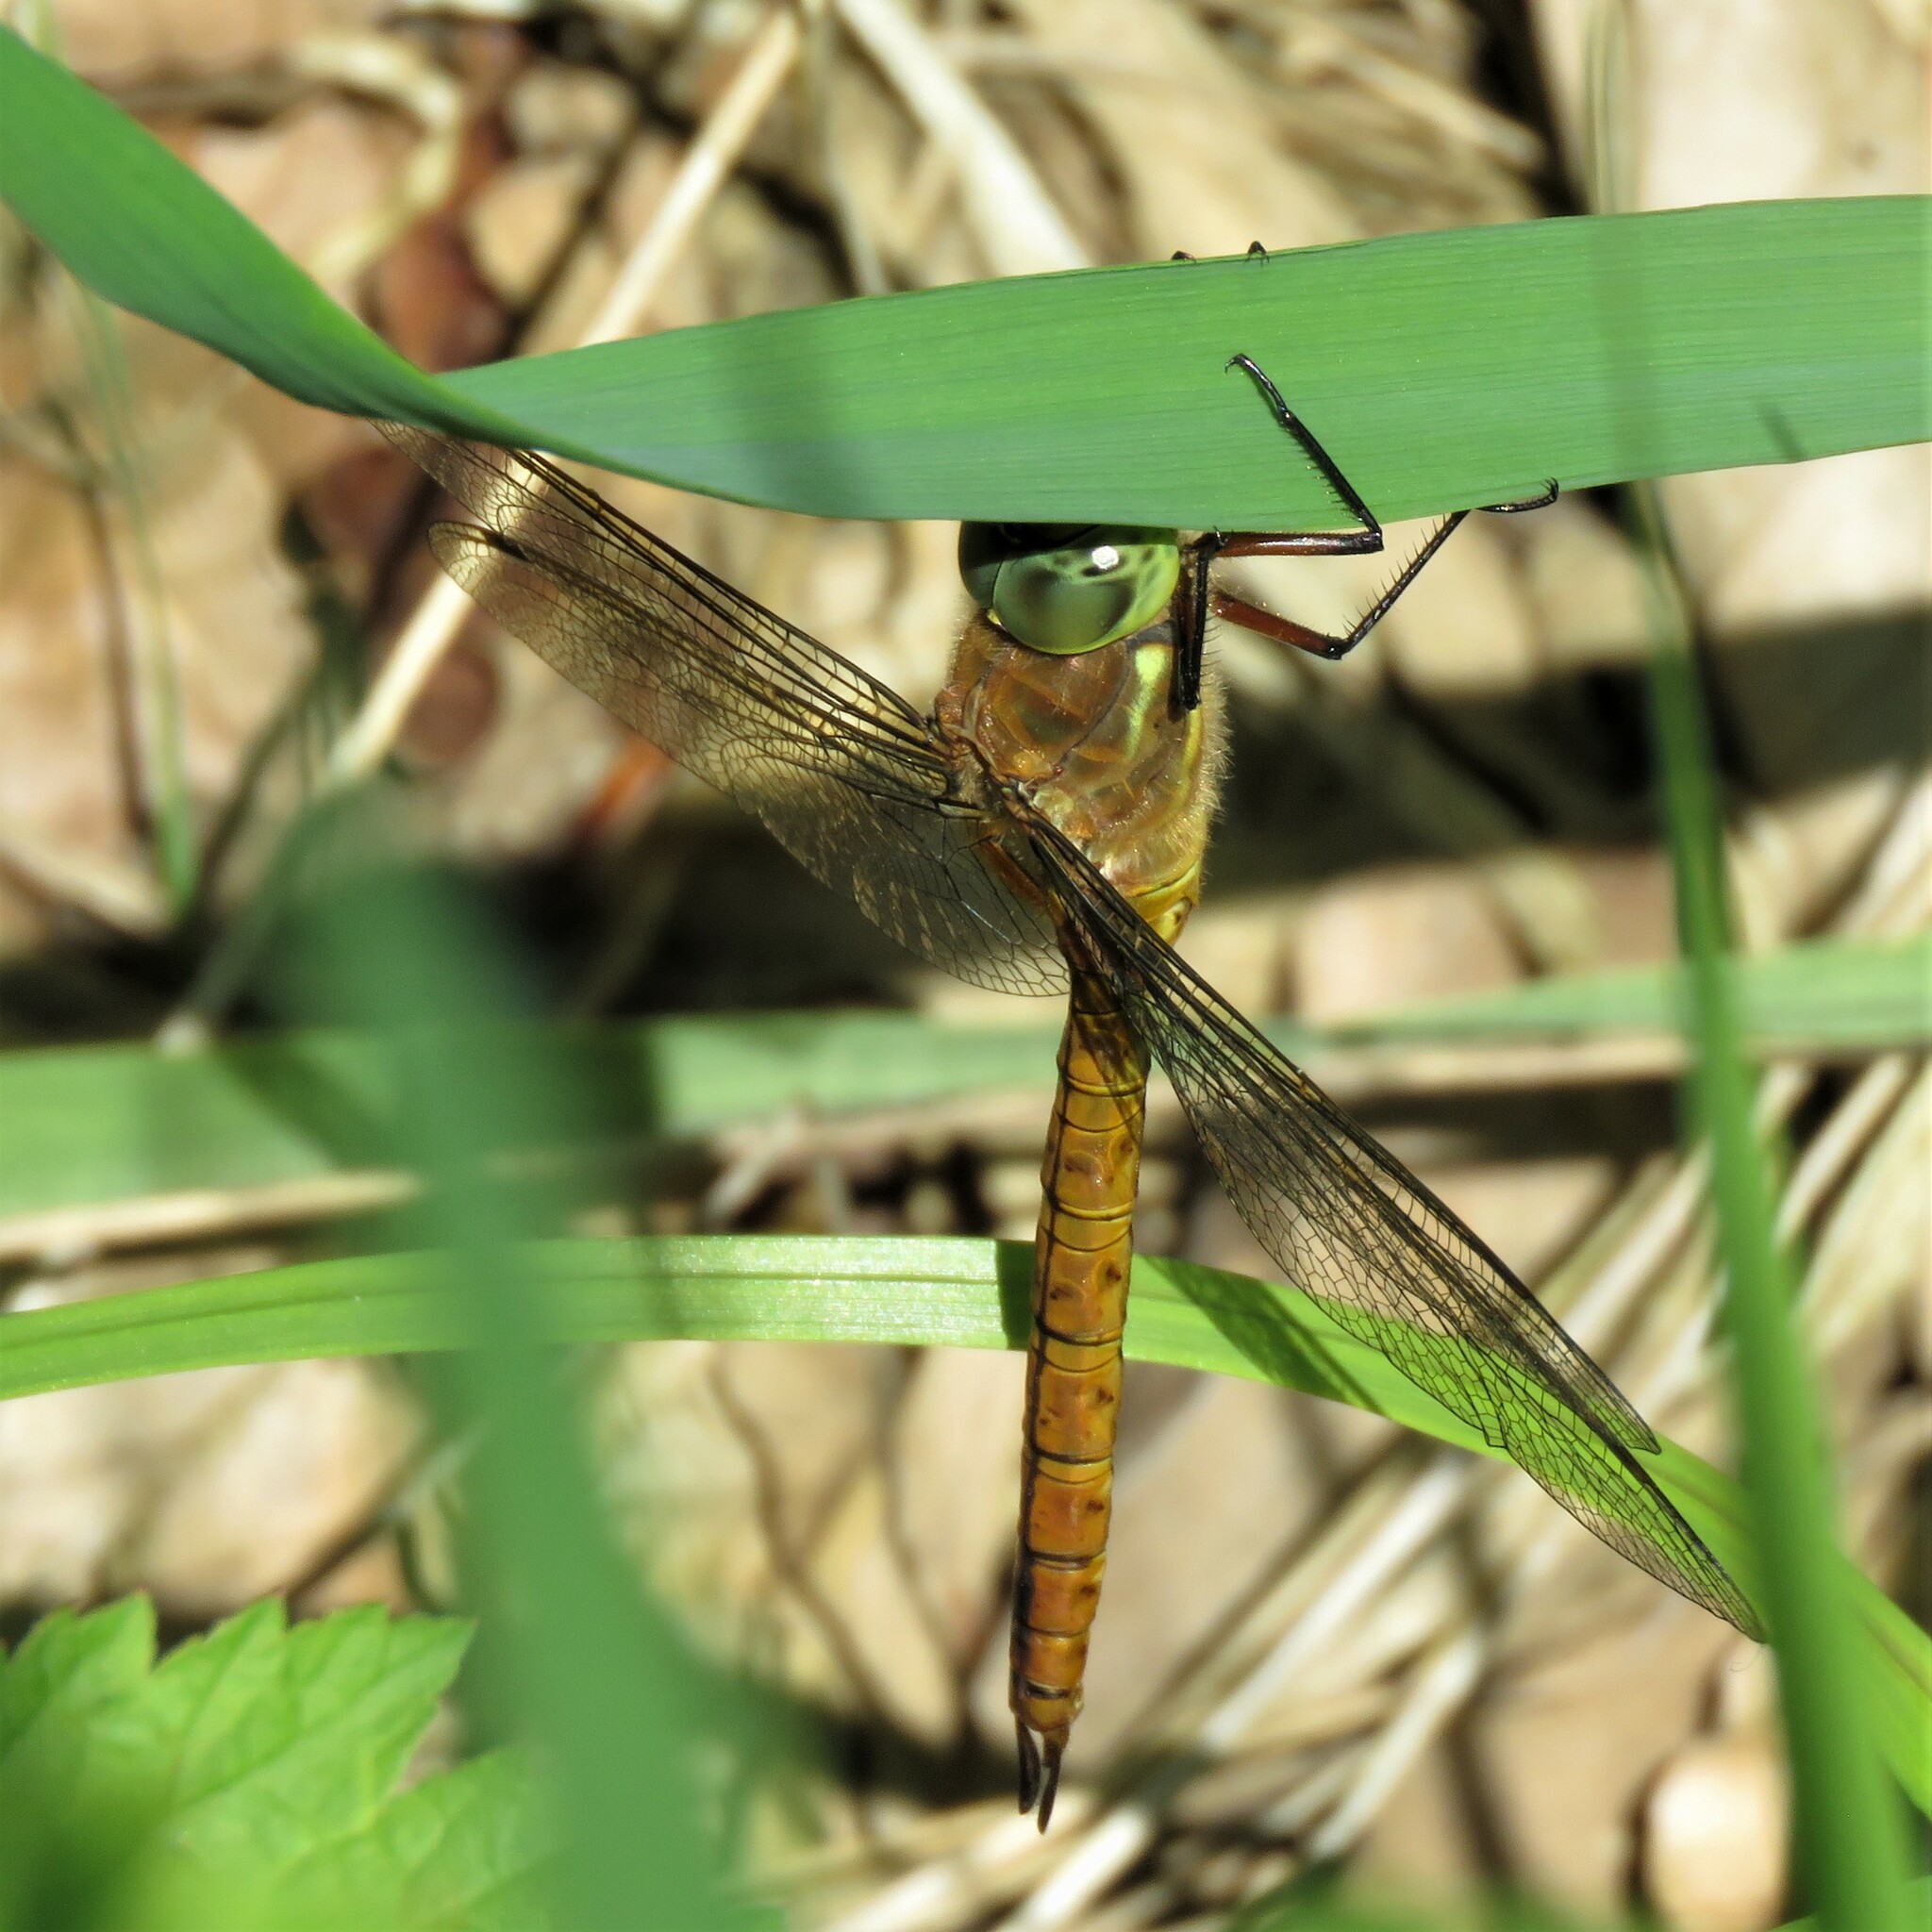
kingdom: Animalia
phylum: Arthropoda
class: Insecta
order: Odonata
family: Aeshnidae
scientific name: Aeshnidae
